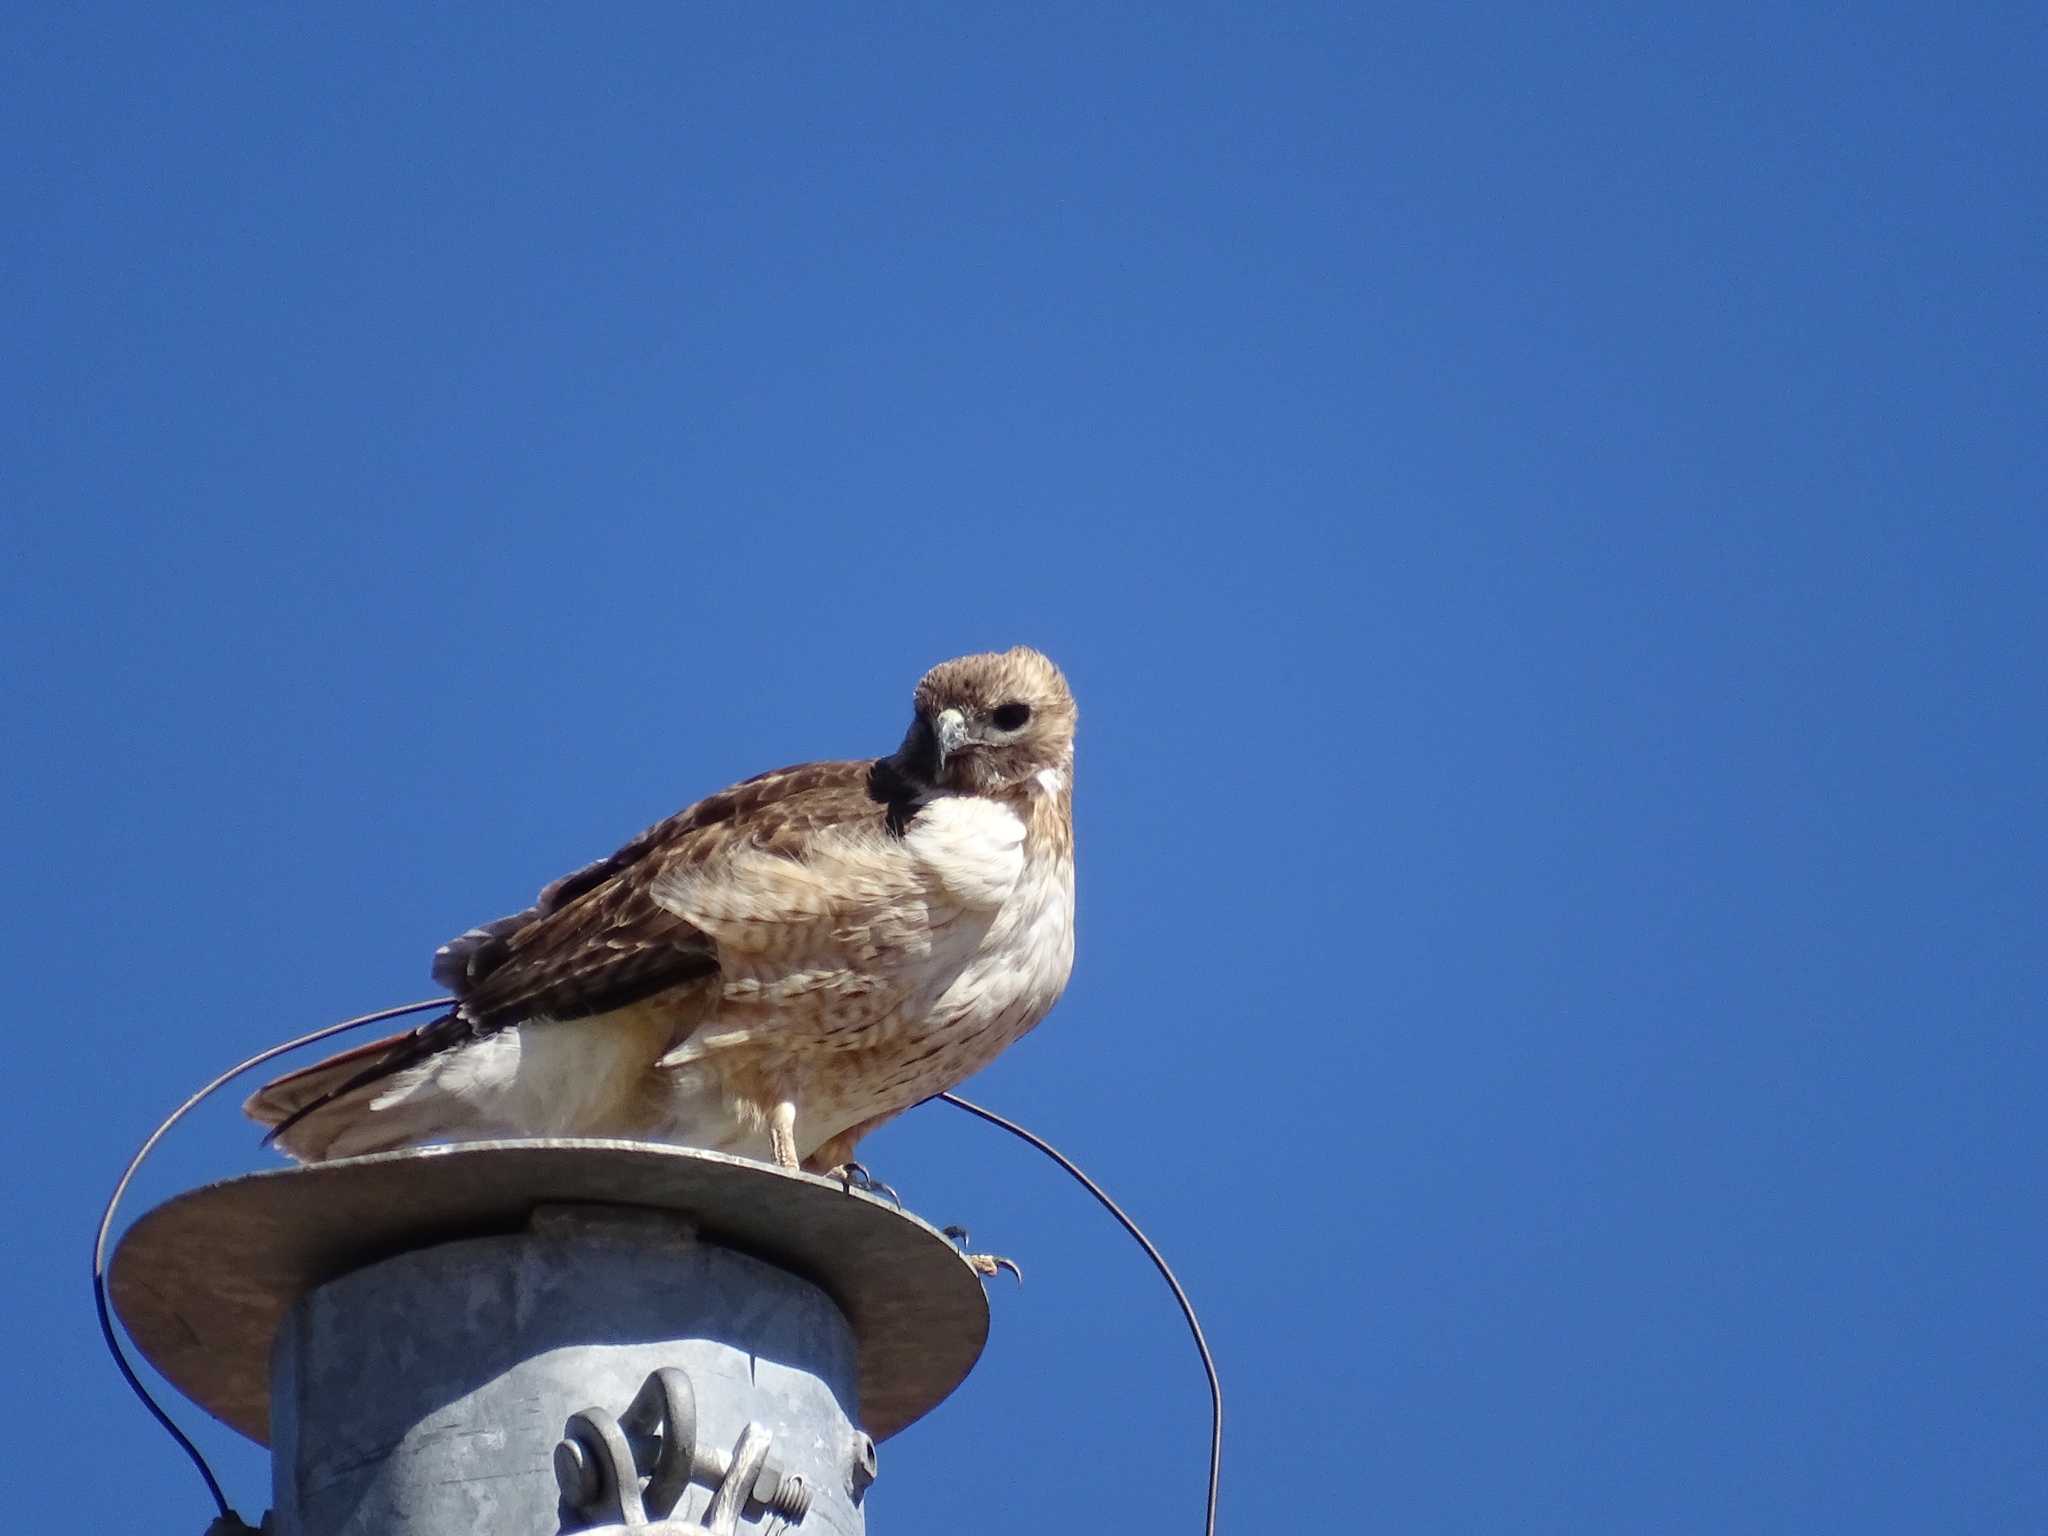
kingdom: Animalia
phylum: Chordata
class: Aves
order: Accipitriformes
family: Accipitridae
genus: Buteo
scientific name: Buteo jamaicensis
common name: Red-tailed hawk
